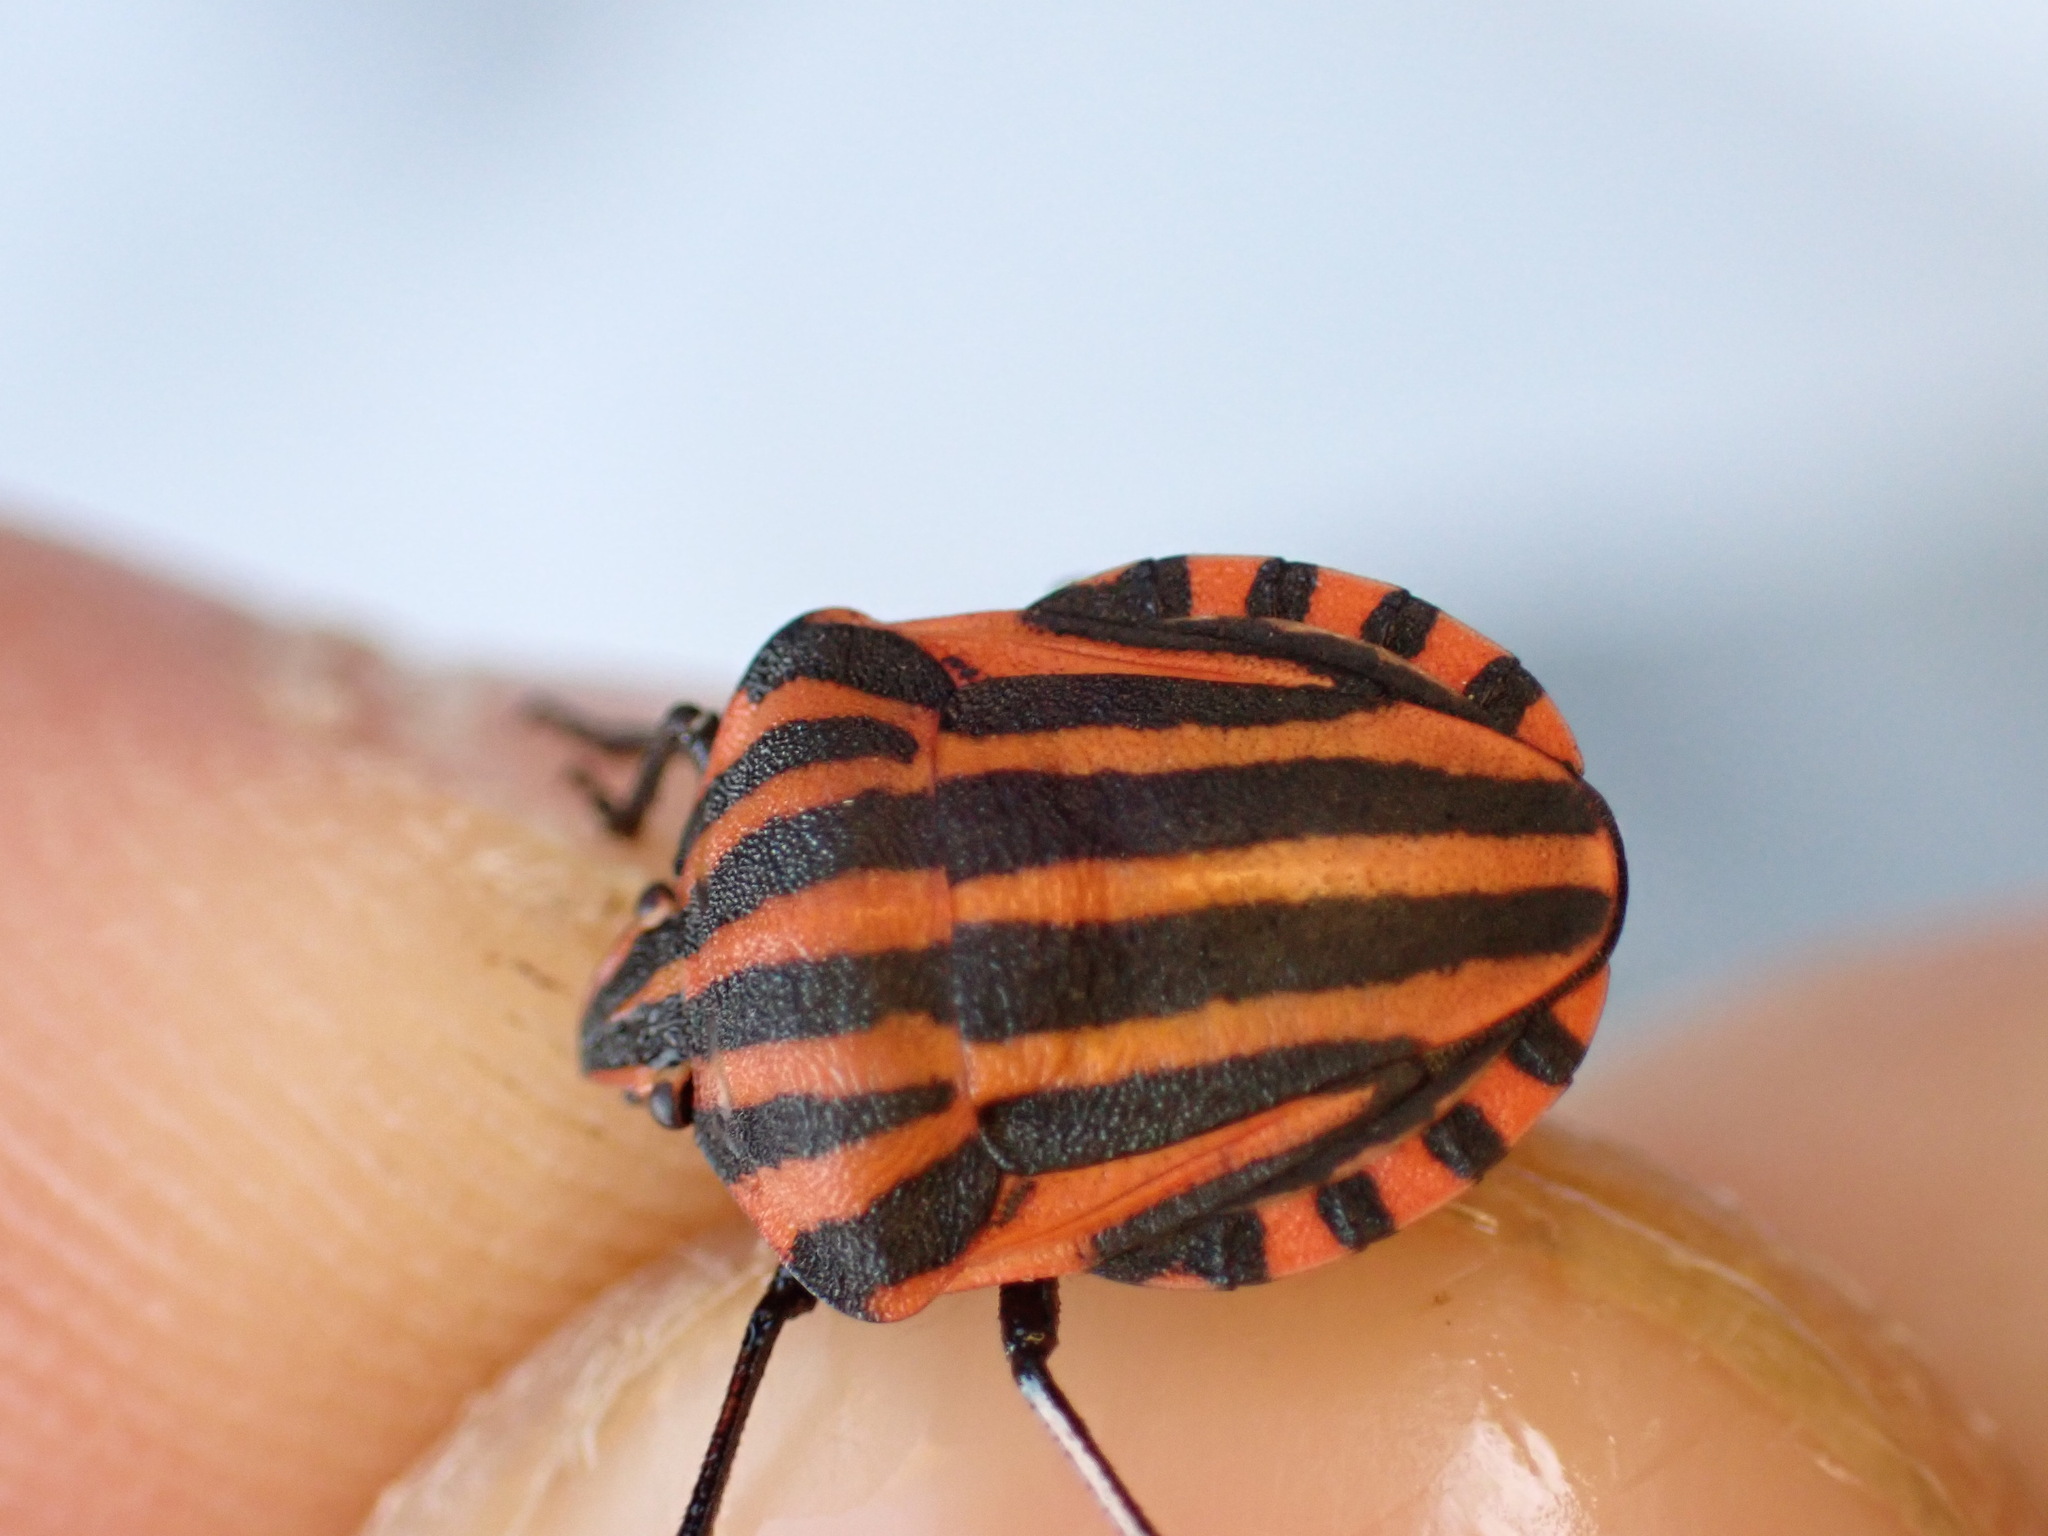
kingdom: Animalia
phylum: Arthropoda
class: Insecta
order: Hemiptera
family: Pentatomidae
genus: Graphosoma
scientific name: Graphosoma italicum
